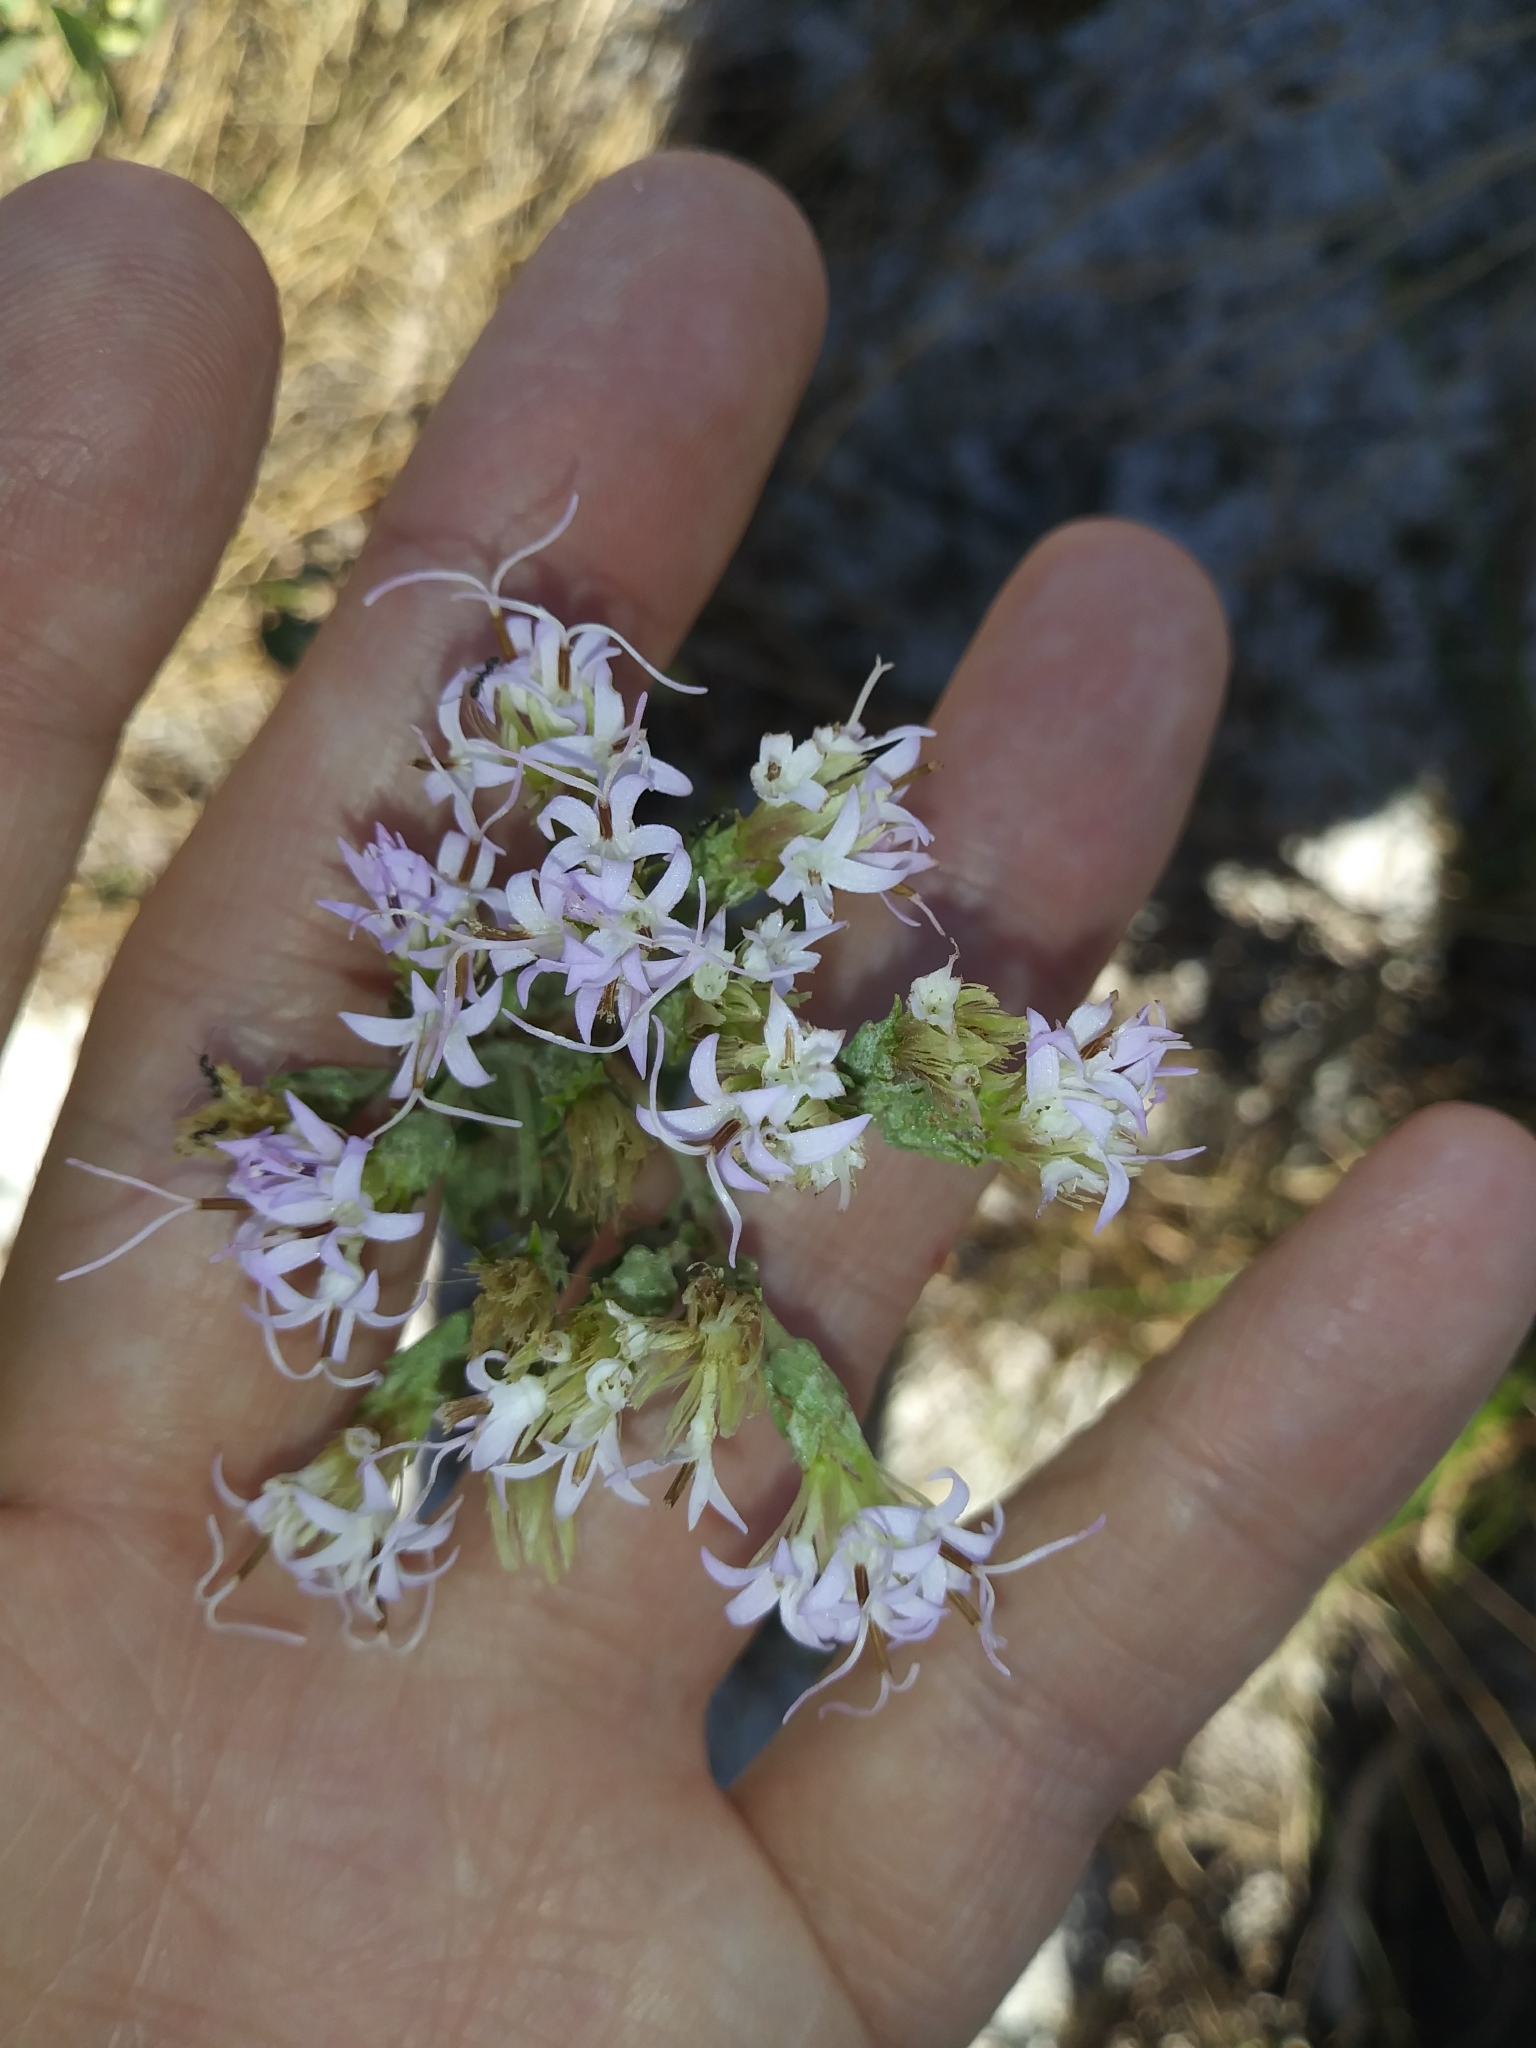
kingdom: Plantae
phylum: Tracheophyta
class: Magnoliopsida
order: Asterales
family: Asteraceae
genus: Garberia
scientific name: Garberia heterophylla
